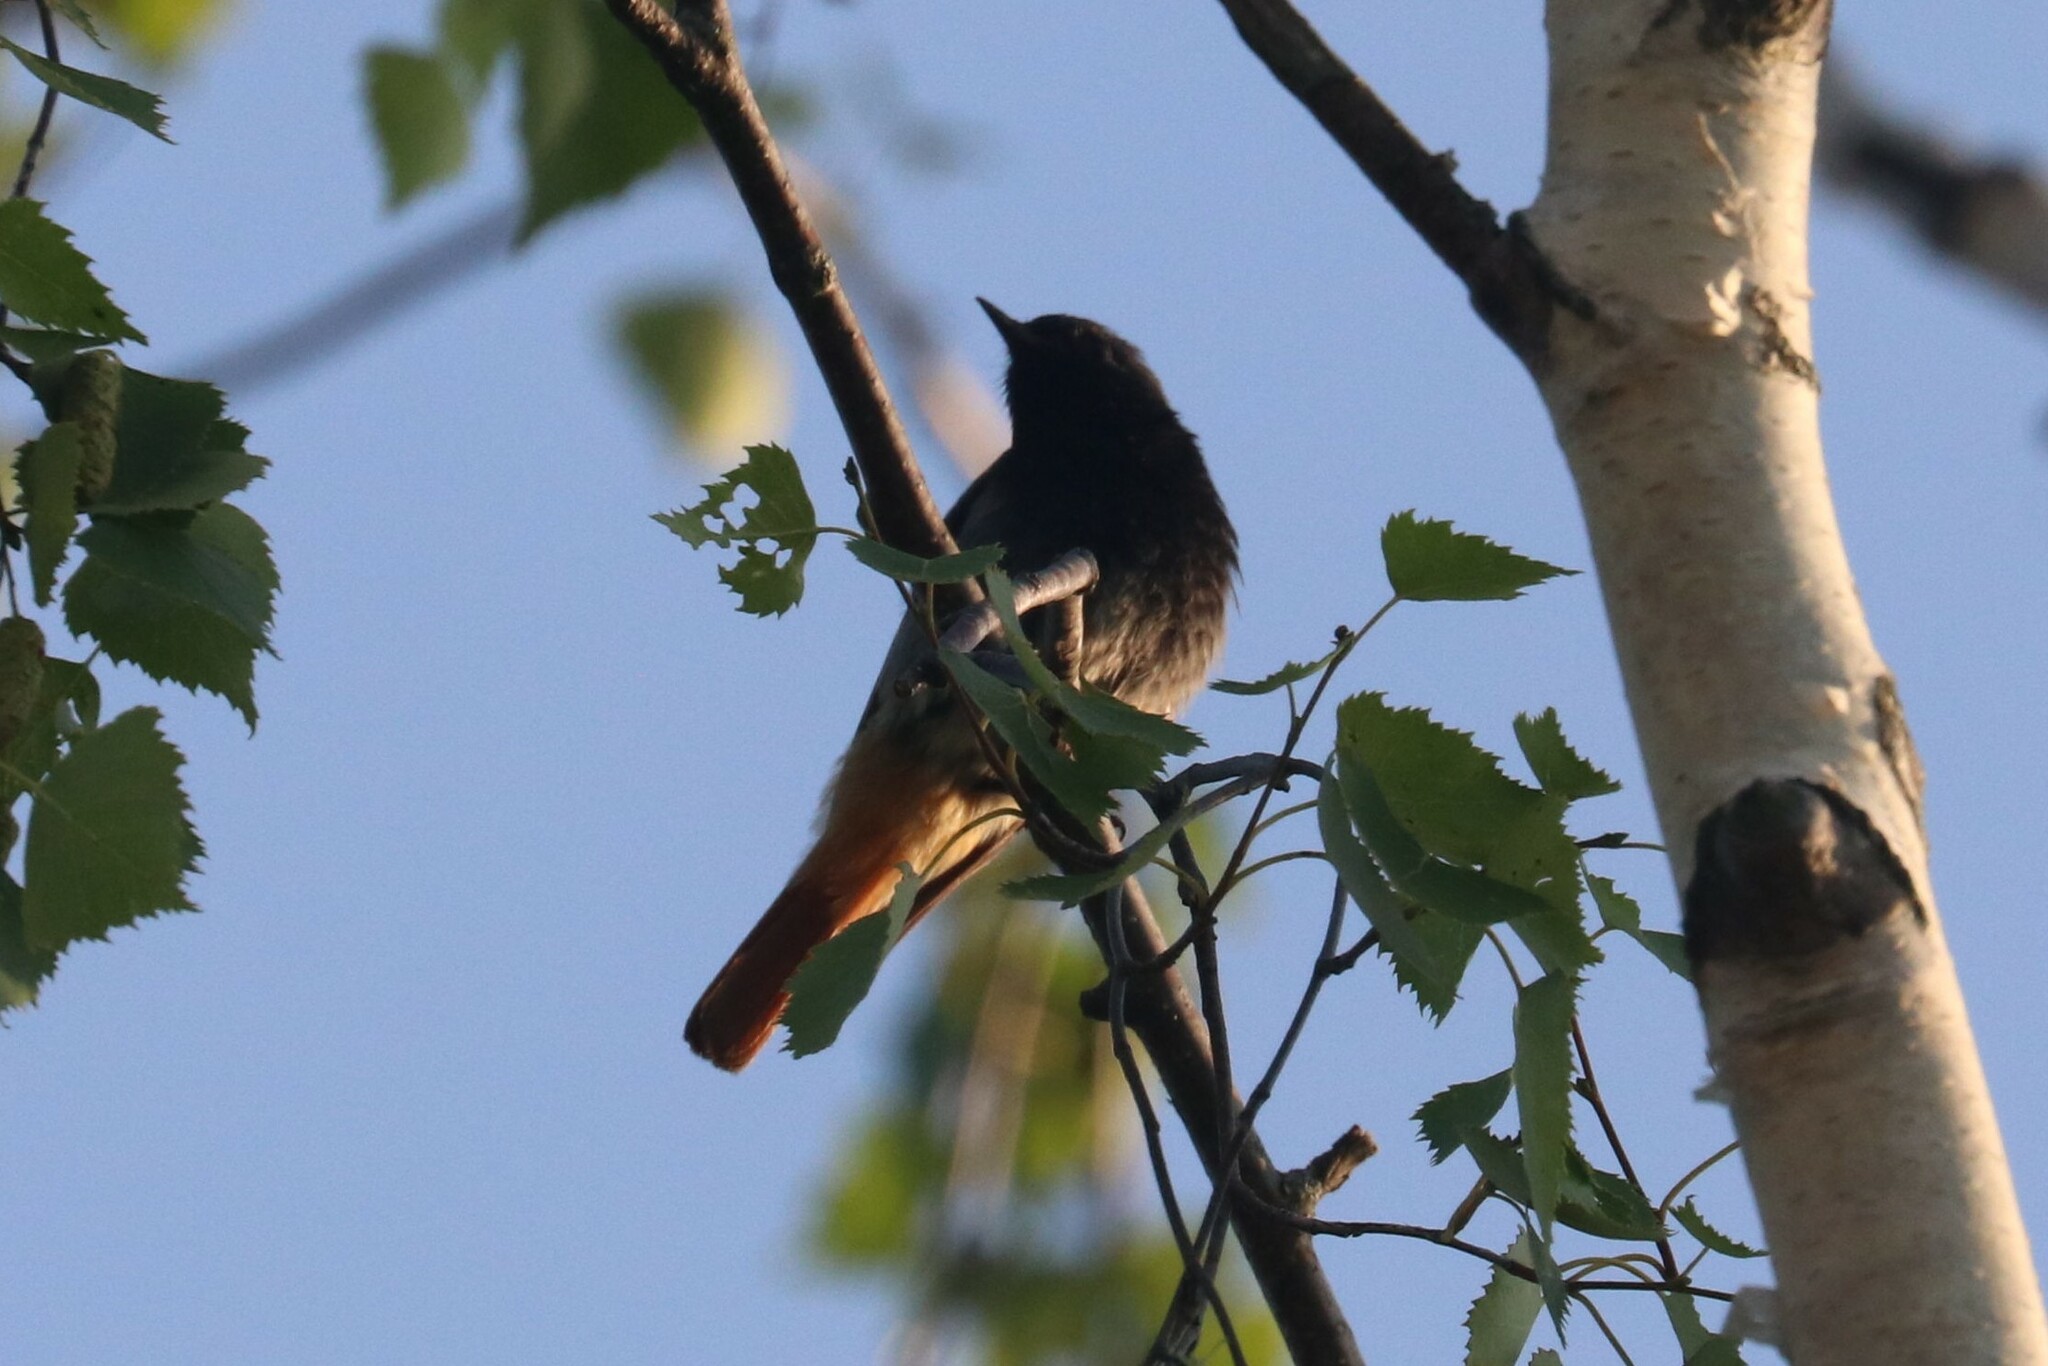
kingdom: Animalia
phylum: Chordata
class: Aves
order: Passeriformes
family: Muscicapidae
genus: Phoenicurus
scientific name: Phoenicurus ochruros
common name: Black redstart
